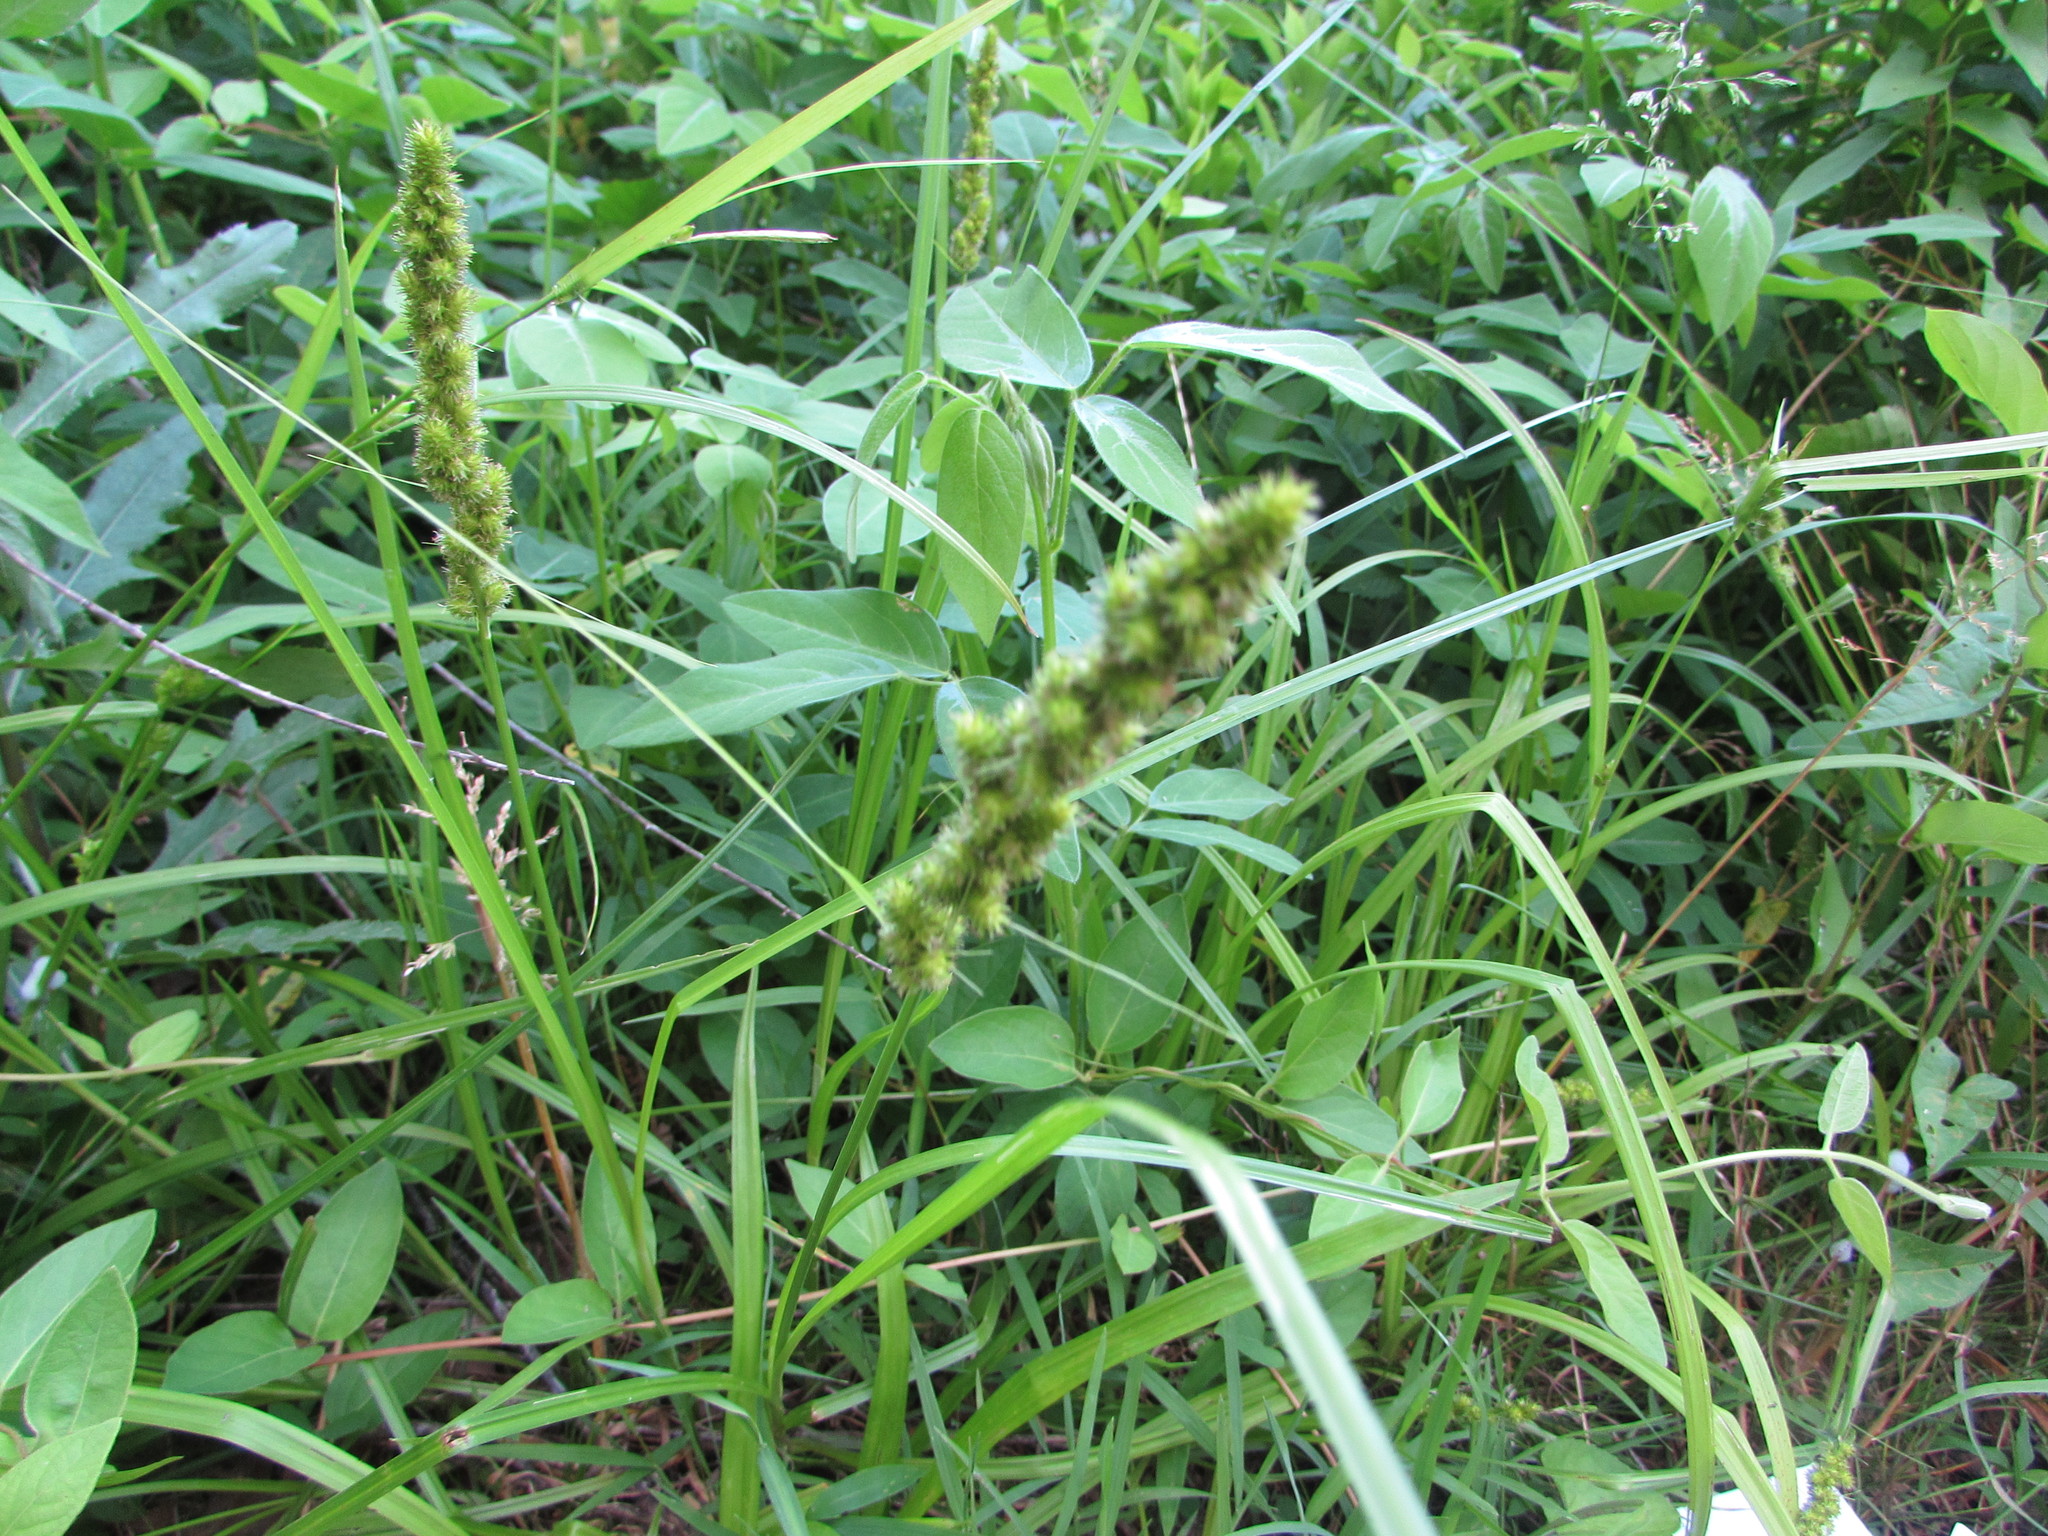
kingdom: Plantae
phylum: Tracheophyta
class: Liliopsida
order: Poales
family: Cyperaceae
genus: Carex
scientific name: Carex annectens
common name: Large fox sedge
